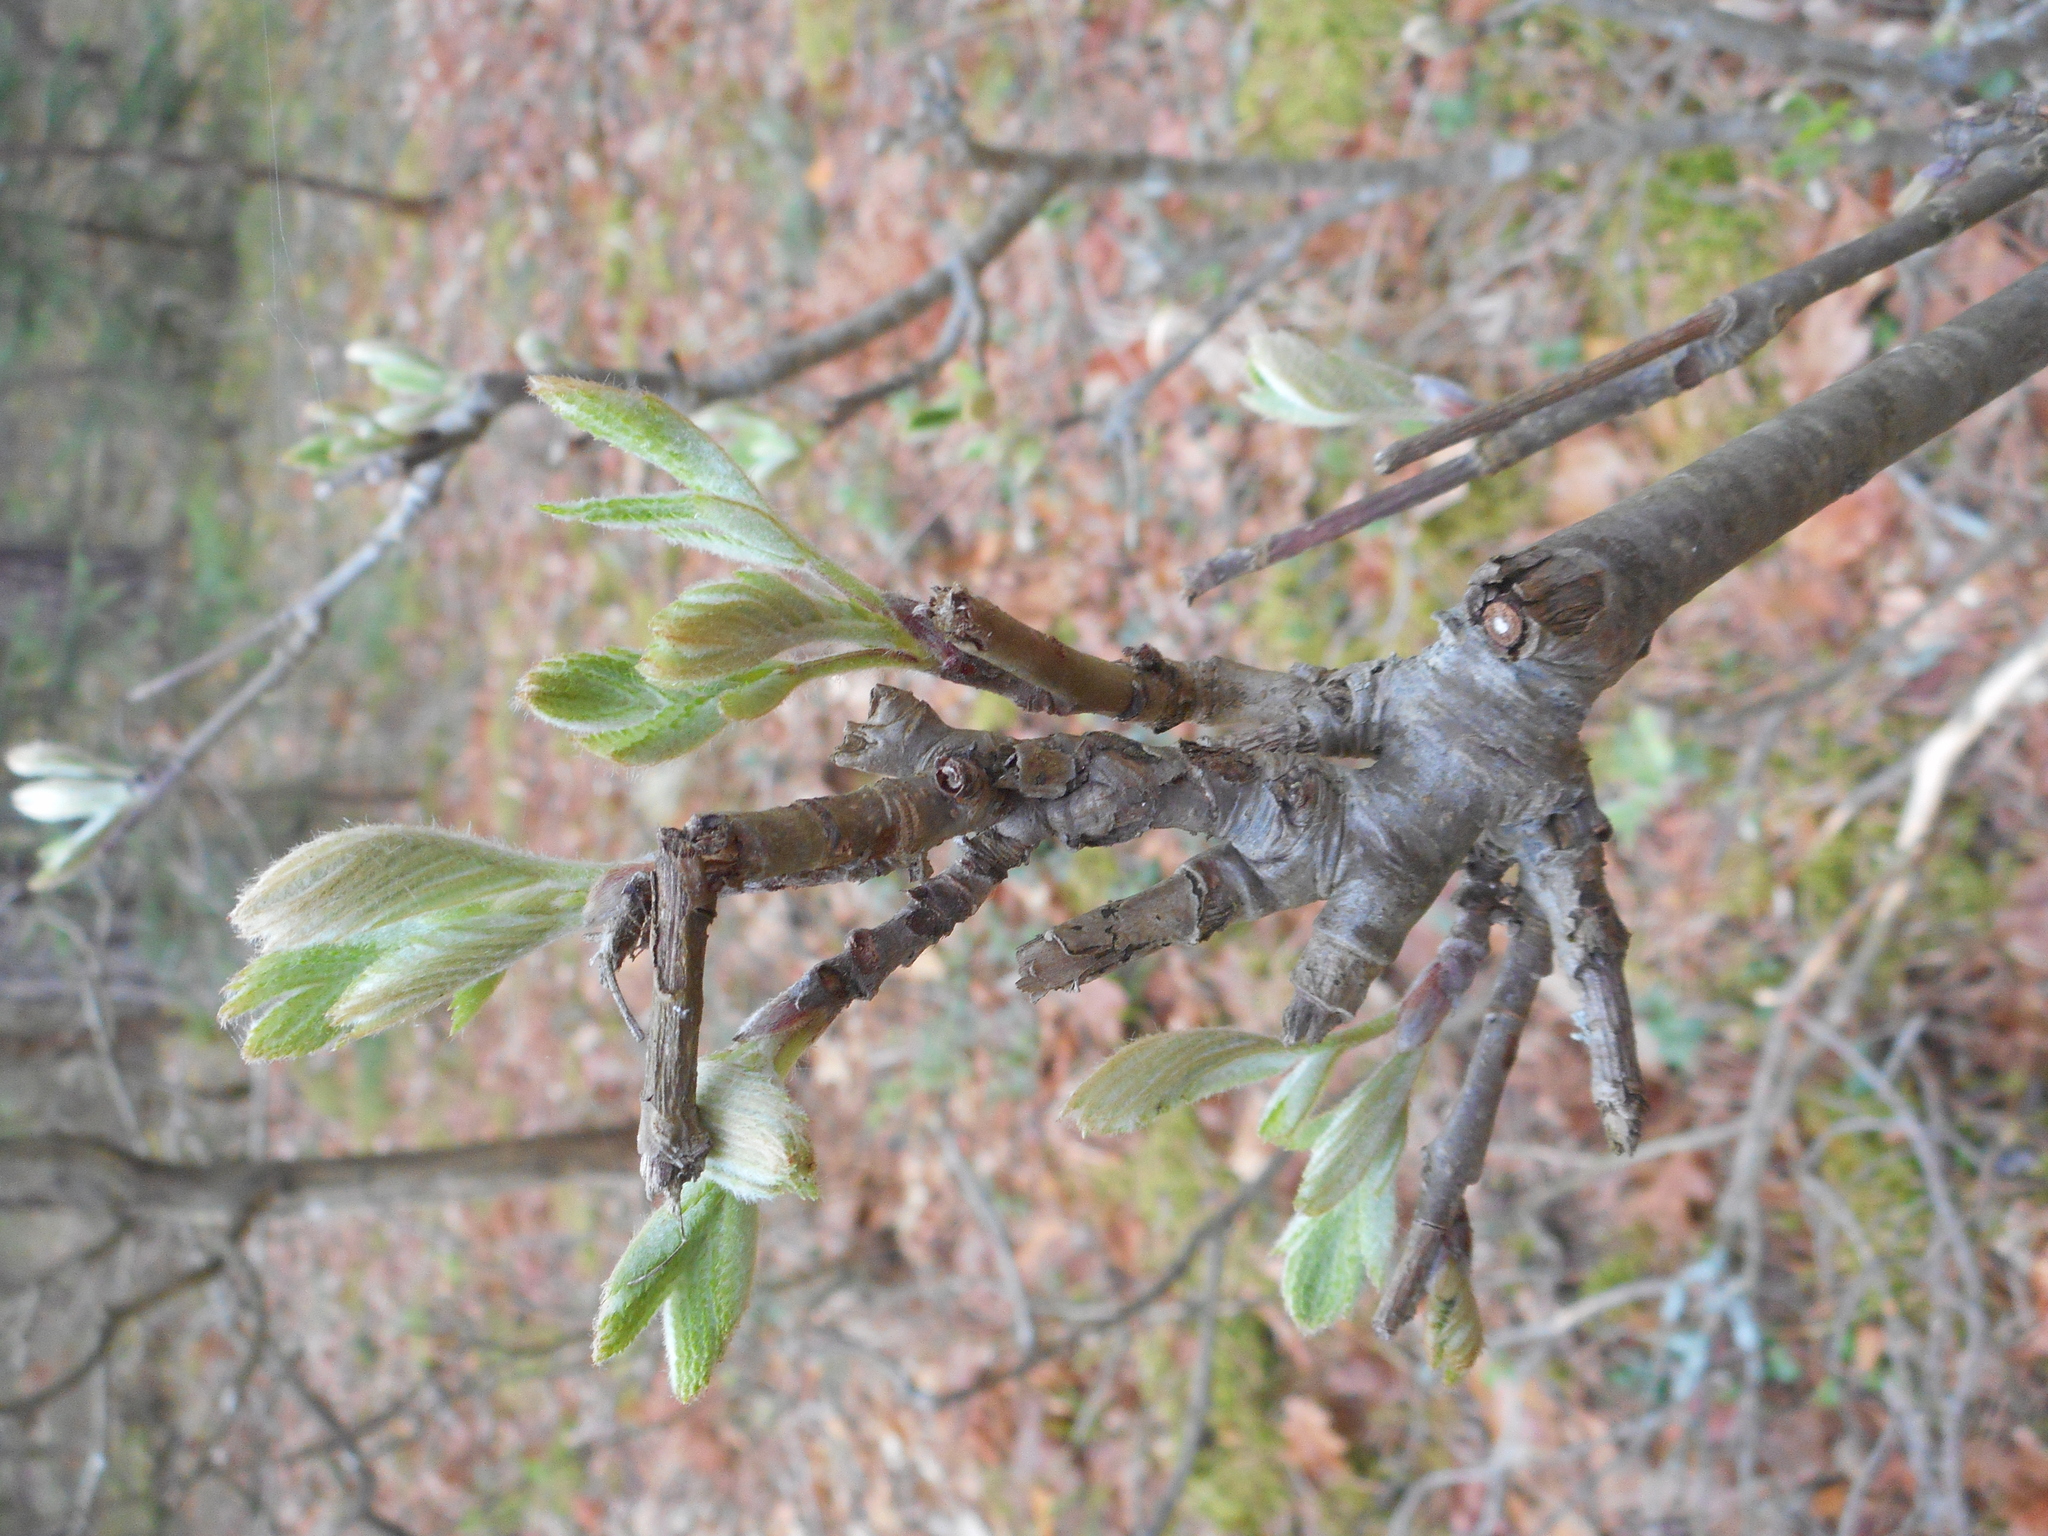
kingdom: Plantae
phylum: Tracheophyta
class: Magnoliopsida
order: Rosales
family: Rosaceae
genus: Sorbus
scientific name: Sorbus aucuparia
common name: Rowan
